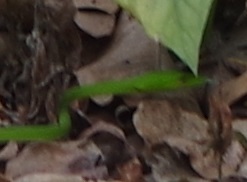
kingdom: Animalia
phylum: Chordata
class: Squamata
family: Colubridae
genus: Ahaetulla
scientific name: Ahaetulla prasina
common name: Oriental whip snake
